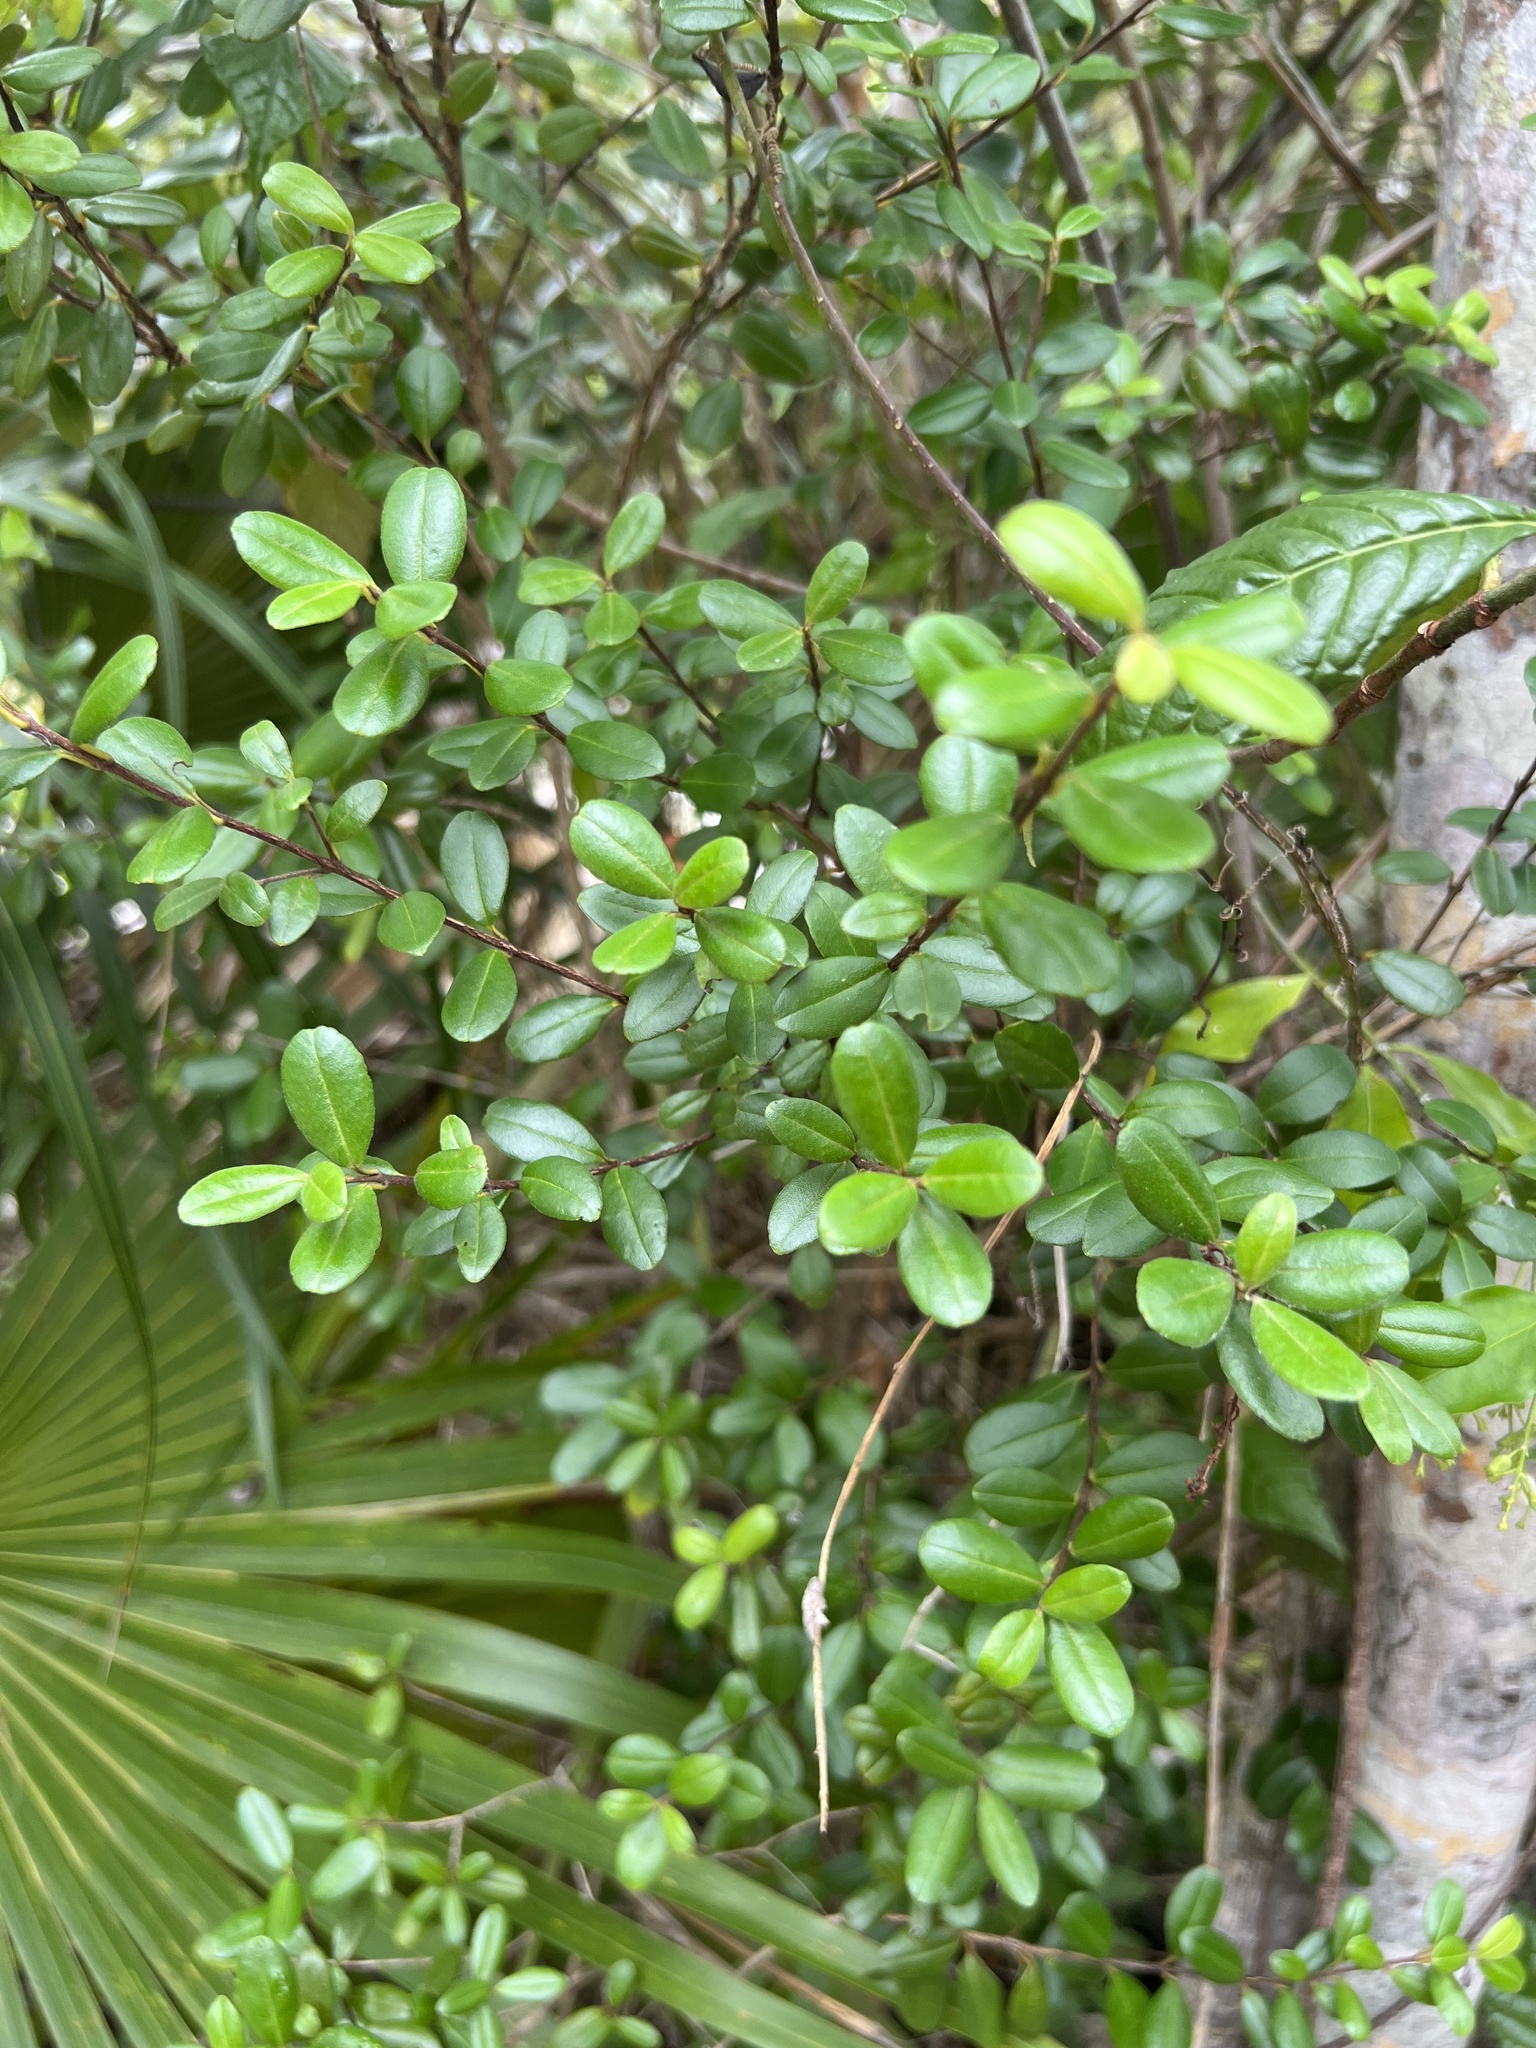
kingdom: Plantae
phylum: Tracheophyta
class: Magnoliopsida
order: Myrtales
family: Myrtaceae
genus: Myrcianthes
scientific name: Myrcianthes fragrans
